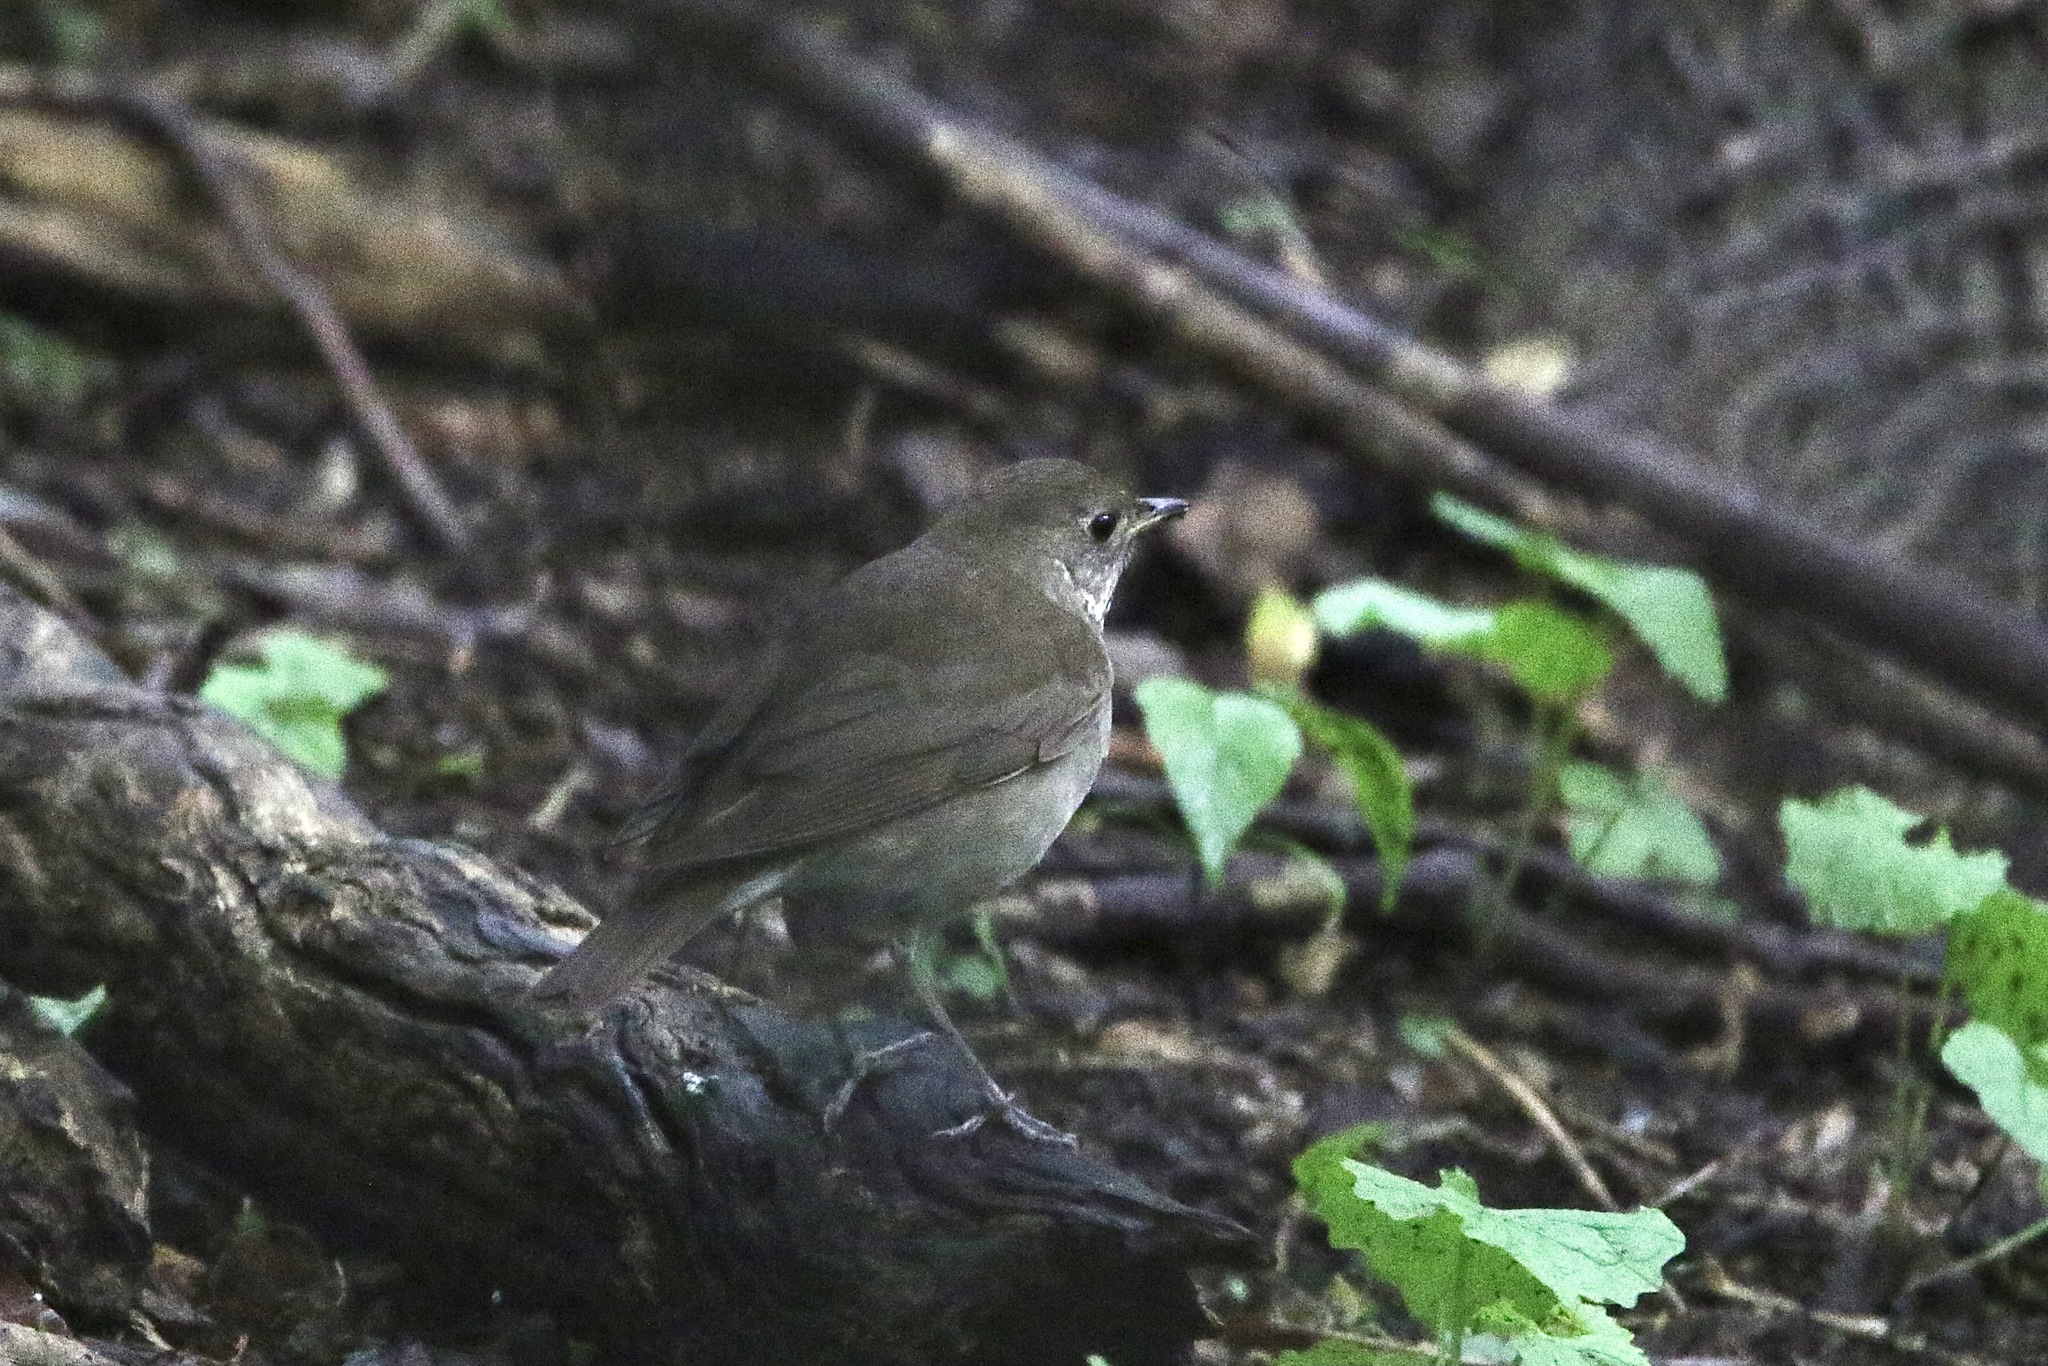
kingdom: Animalia
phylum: Chordata
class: Aves
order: Passeriformes
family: Turdidae
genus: Catharus
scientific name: Catharus minimus
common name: Grey-cheeked thrush
